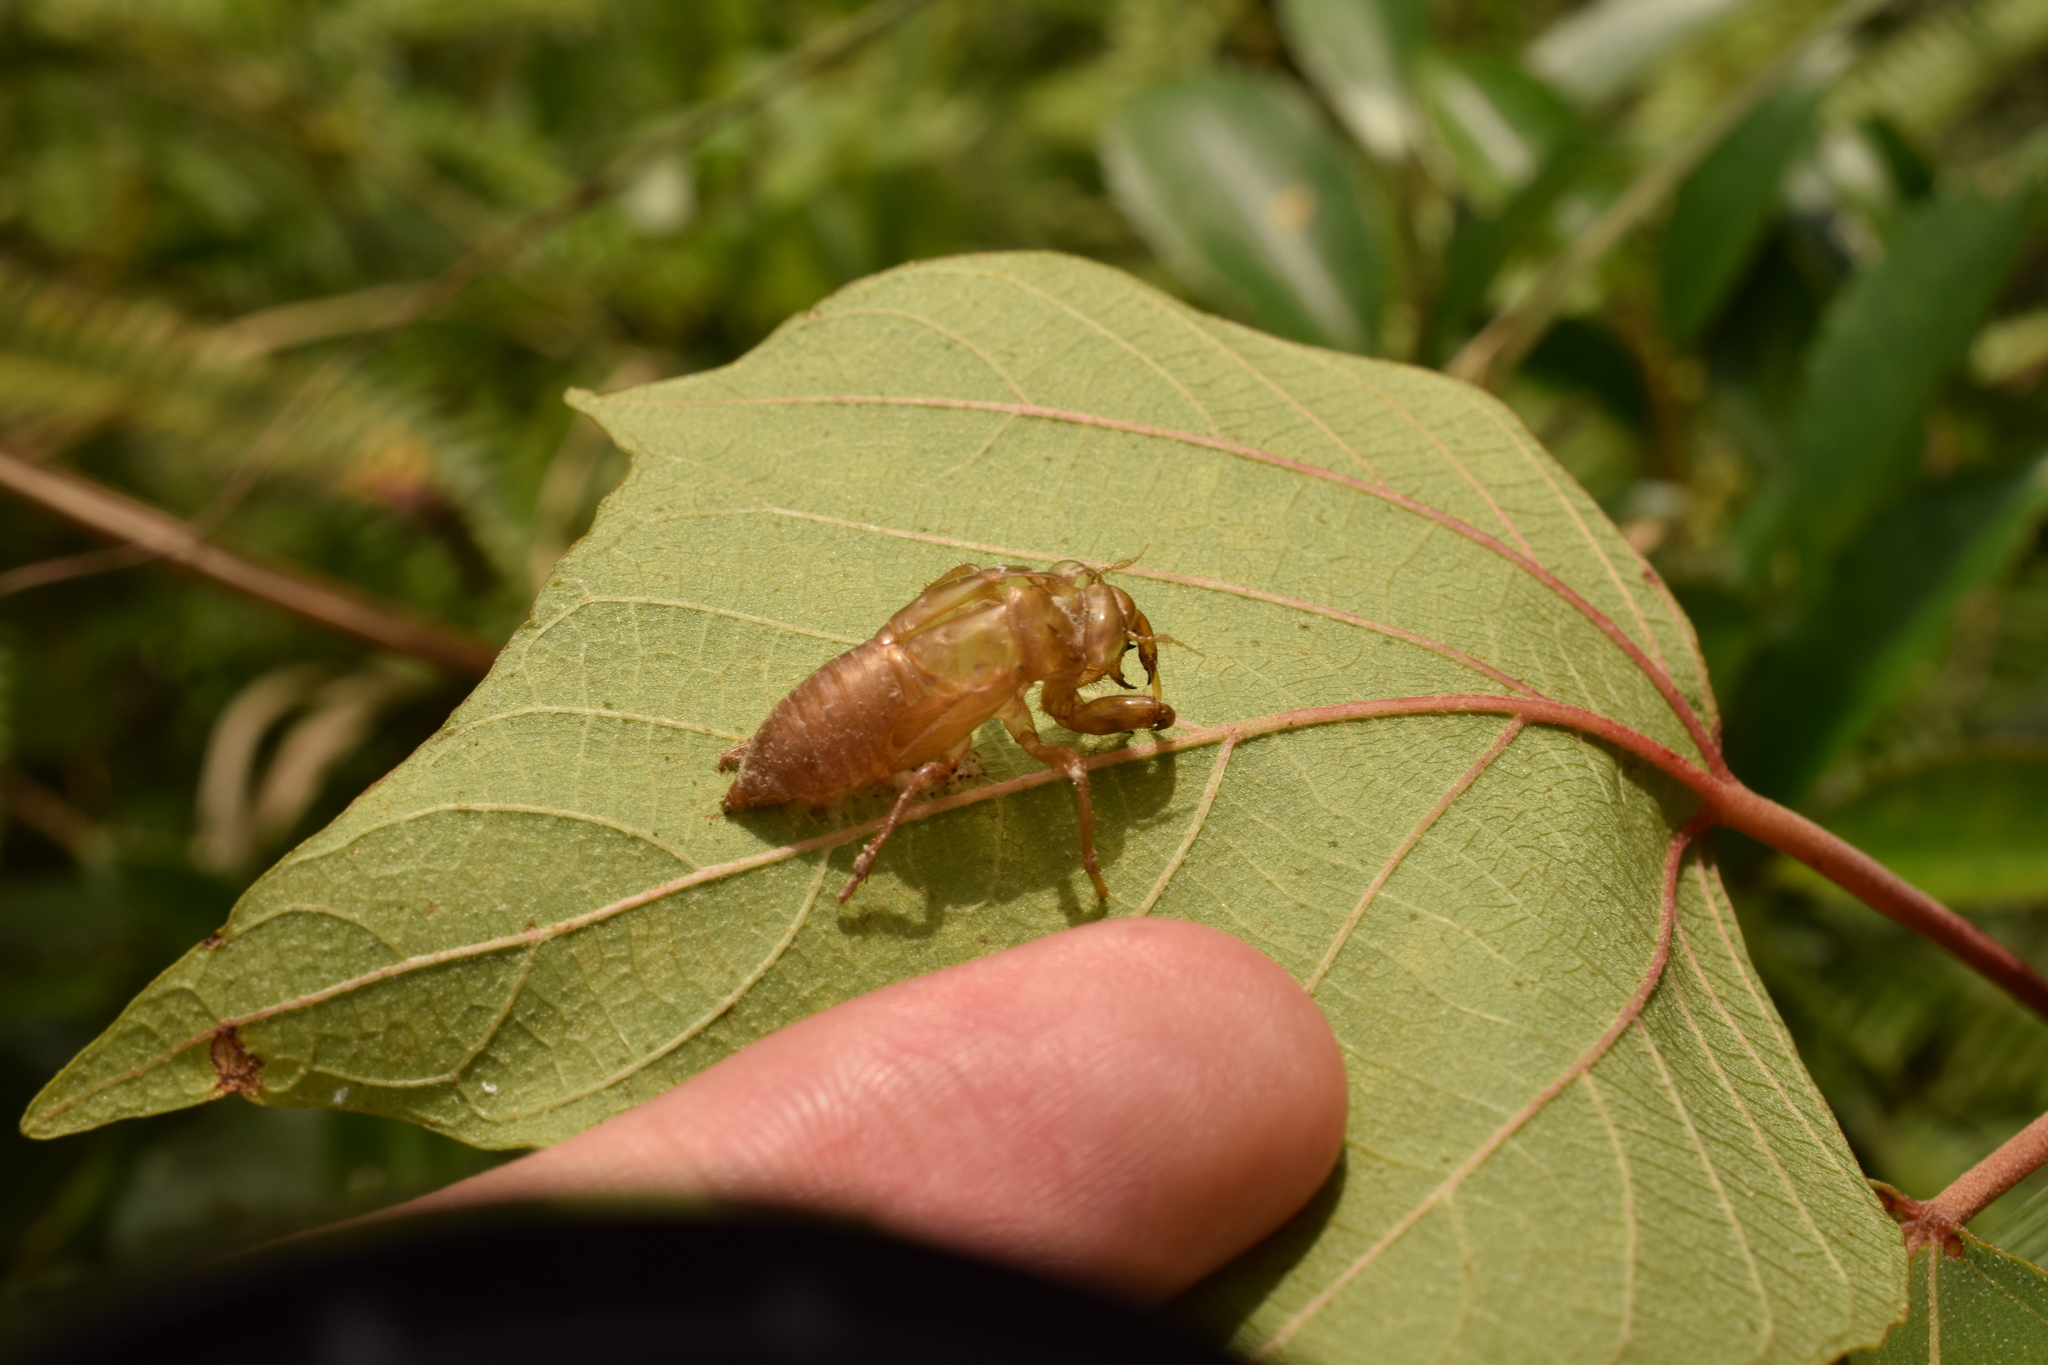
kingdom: Animalia
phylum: Arthropoda
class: Insecta
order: Hemiptera
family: Cicadidae
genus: Euterpnosia
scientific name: Euterpnosia chibensis
